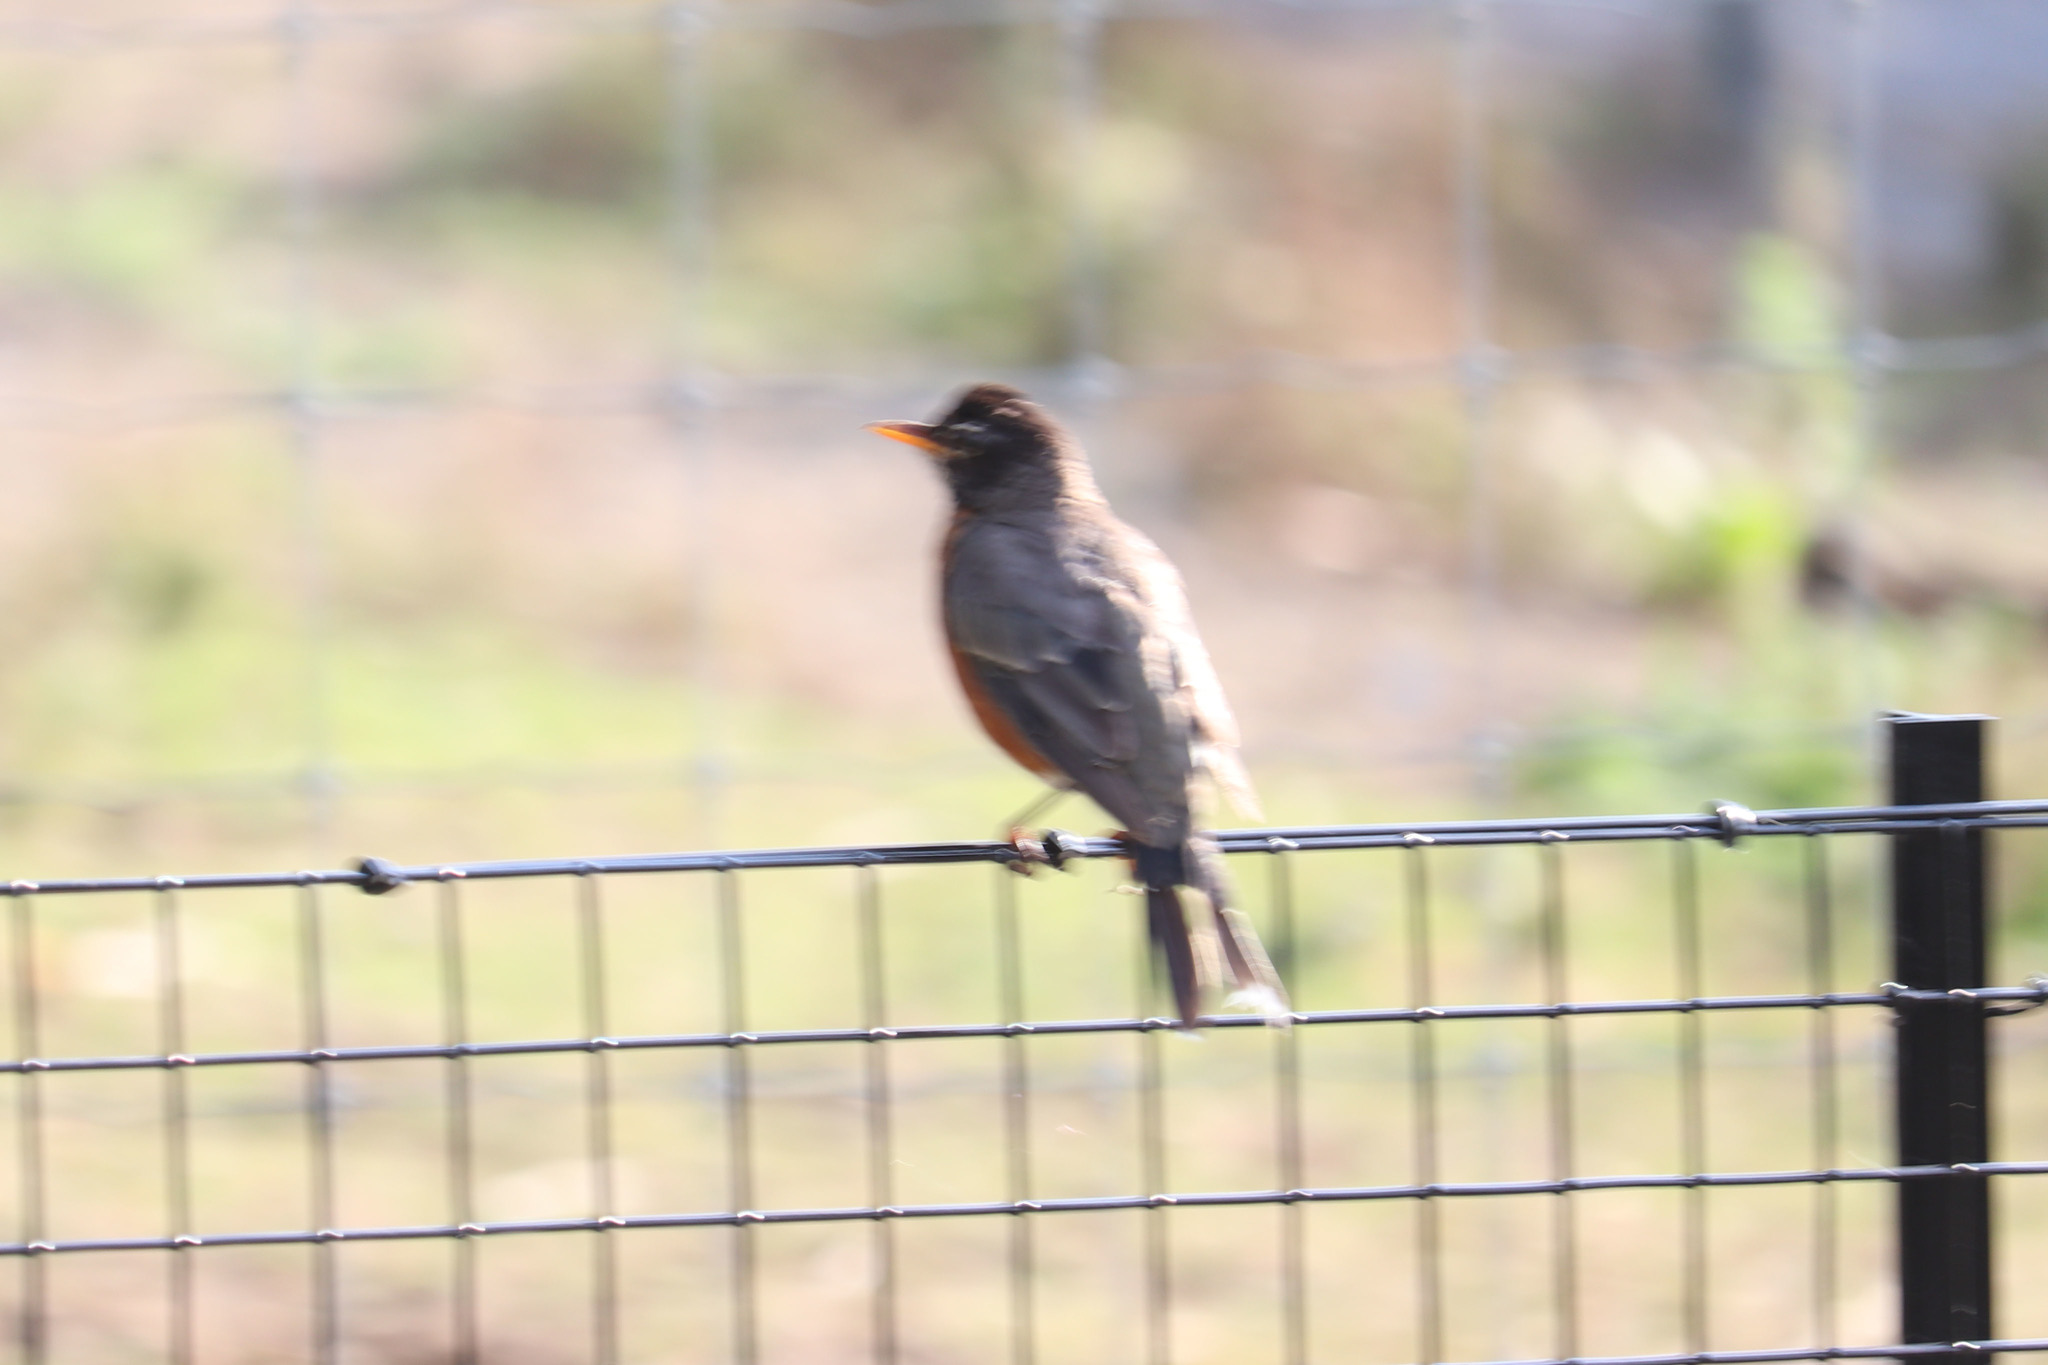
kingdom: Animalia
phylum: Chordata
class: Aves
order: Passeriformes
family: Turdidae
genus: Turdus
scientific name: Turdus migratorius
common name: American robin
